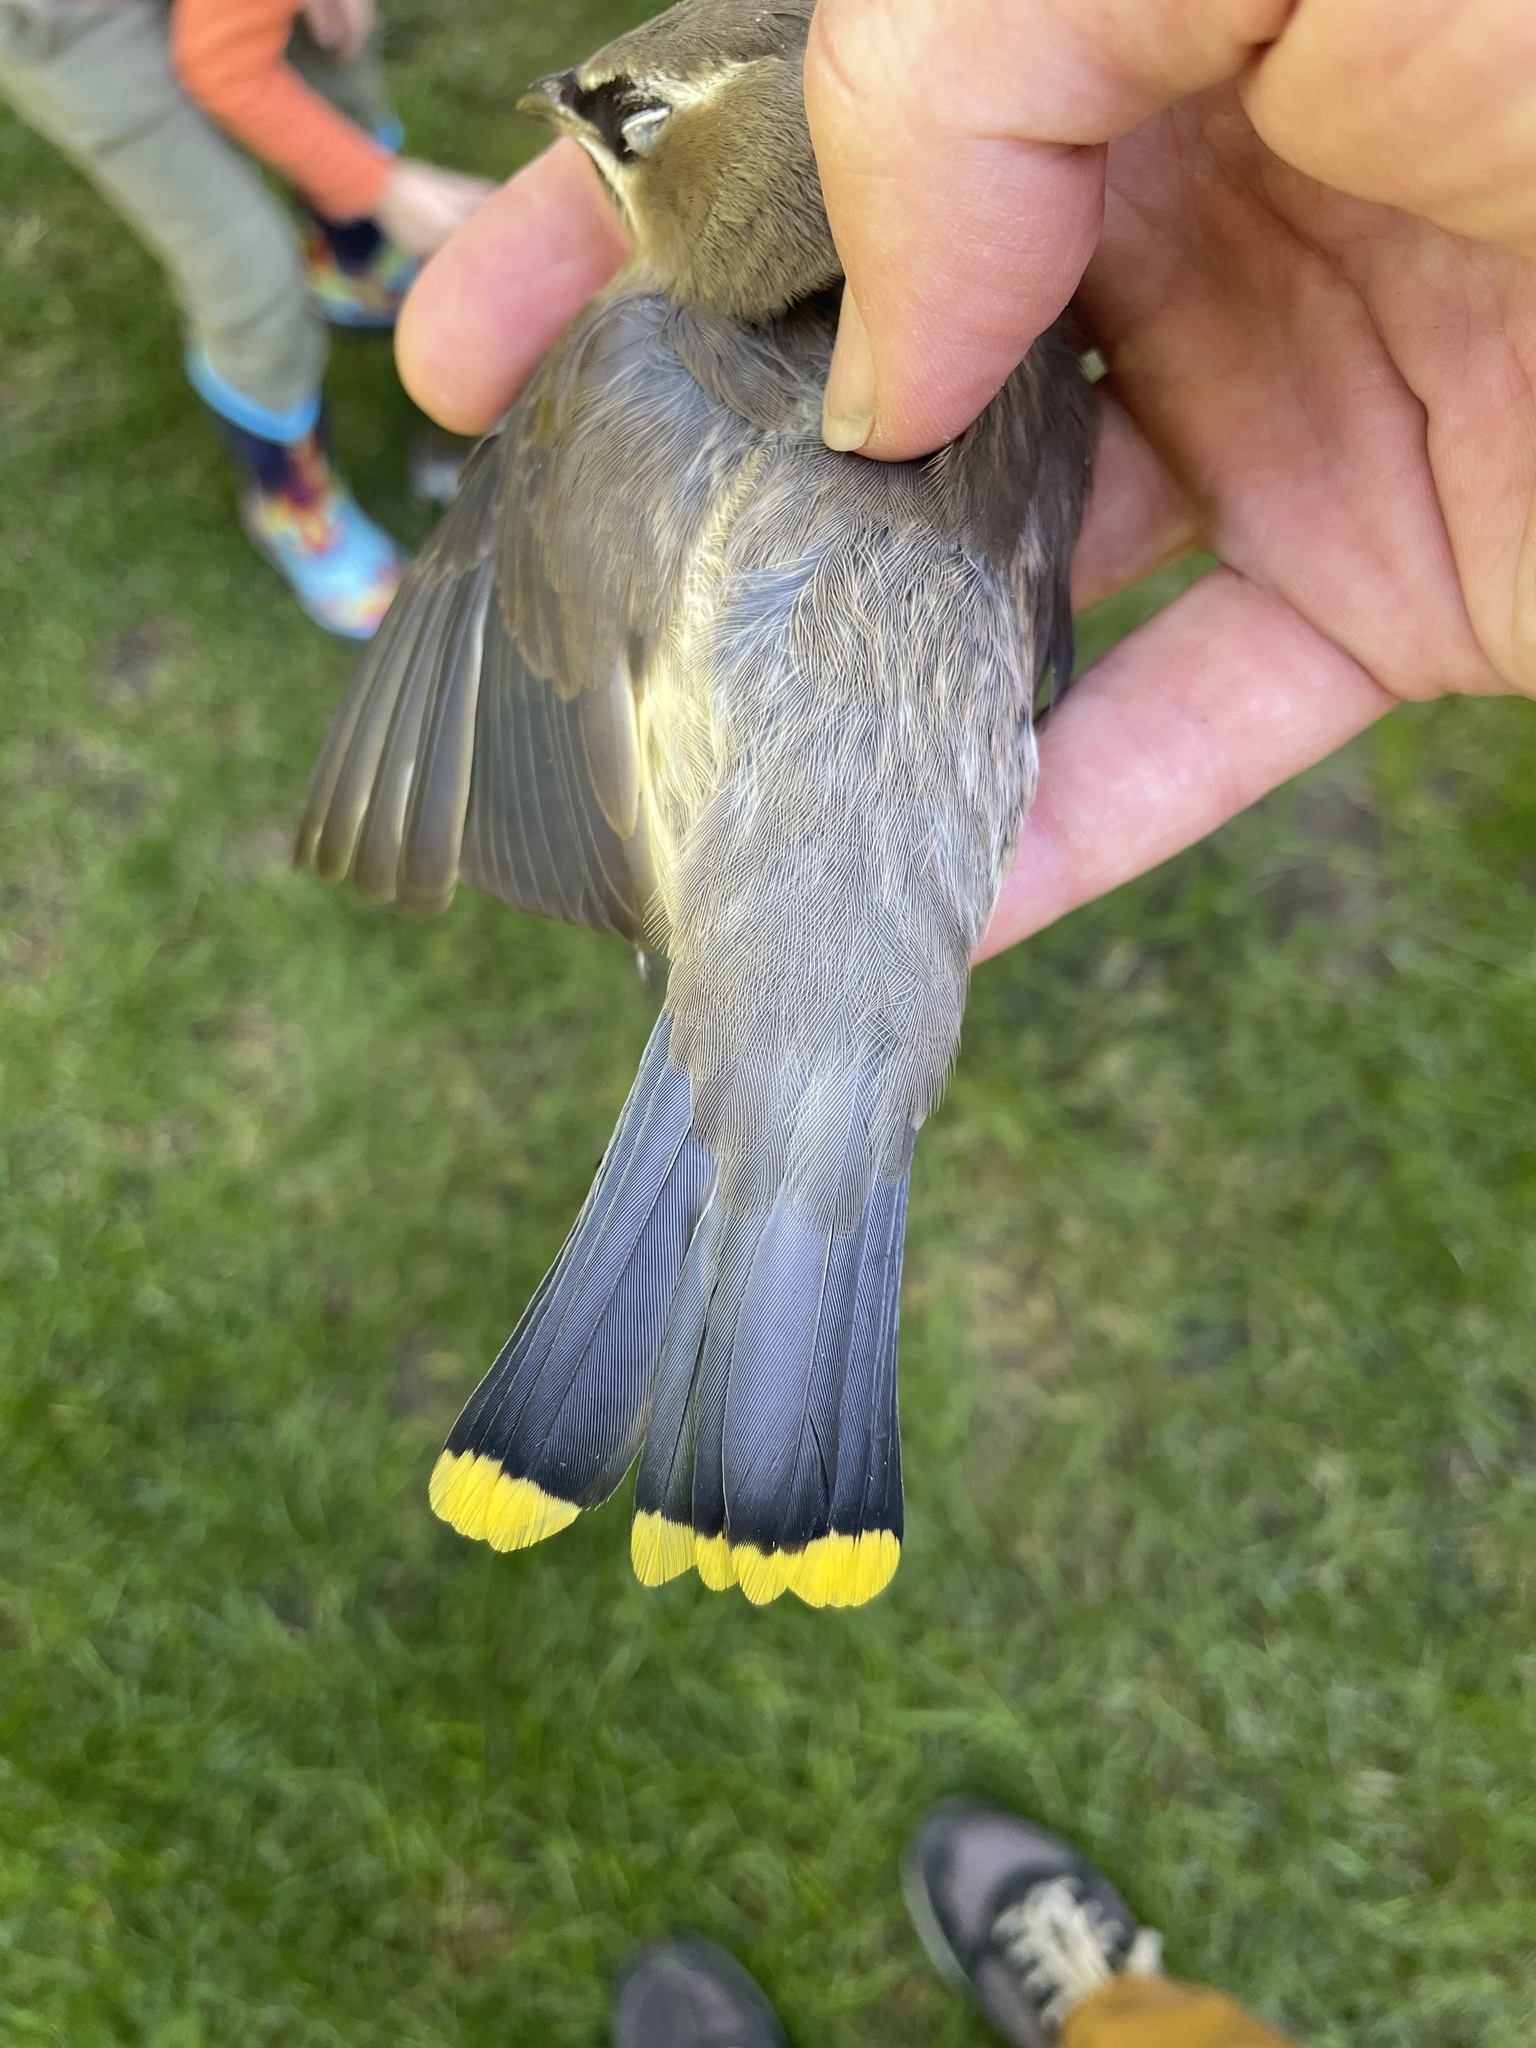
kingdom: Animalia
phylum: Chordata
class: Aves
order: Passeriformes
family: Bombycillidae
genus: Bombycilla
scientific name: Bombycilla cedrorum
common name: Cedar waxwing
